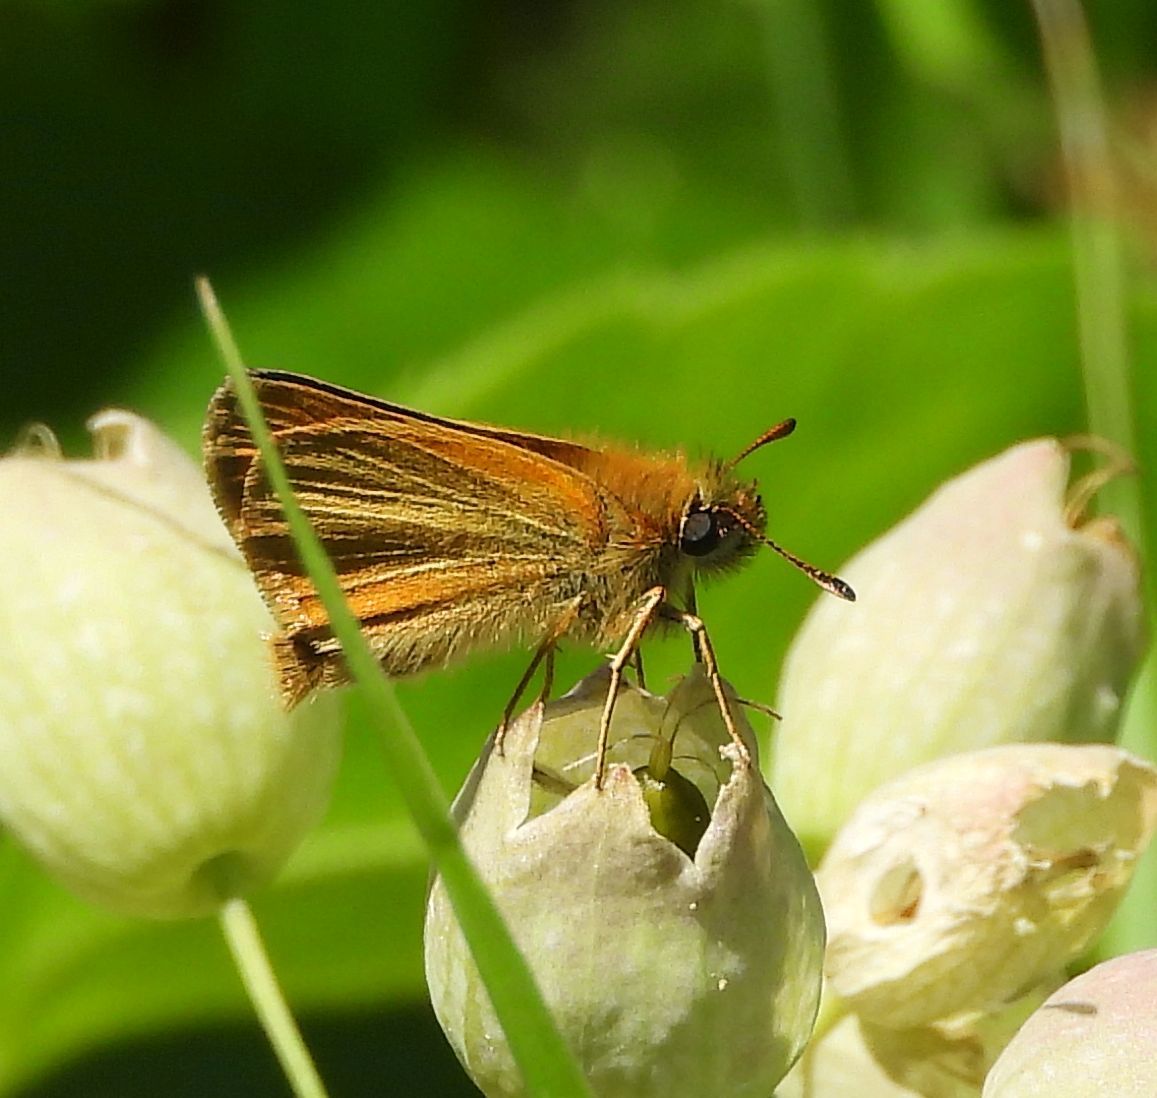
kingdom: Animalia
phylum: Arthropoda
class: Insecta
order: Lepidoptera
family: Hesperiidae
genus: Thymelicus
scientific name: Thymelicus lineola
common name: Essex skipper
